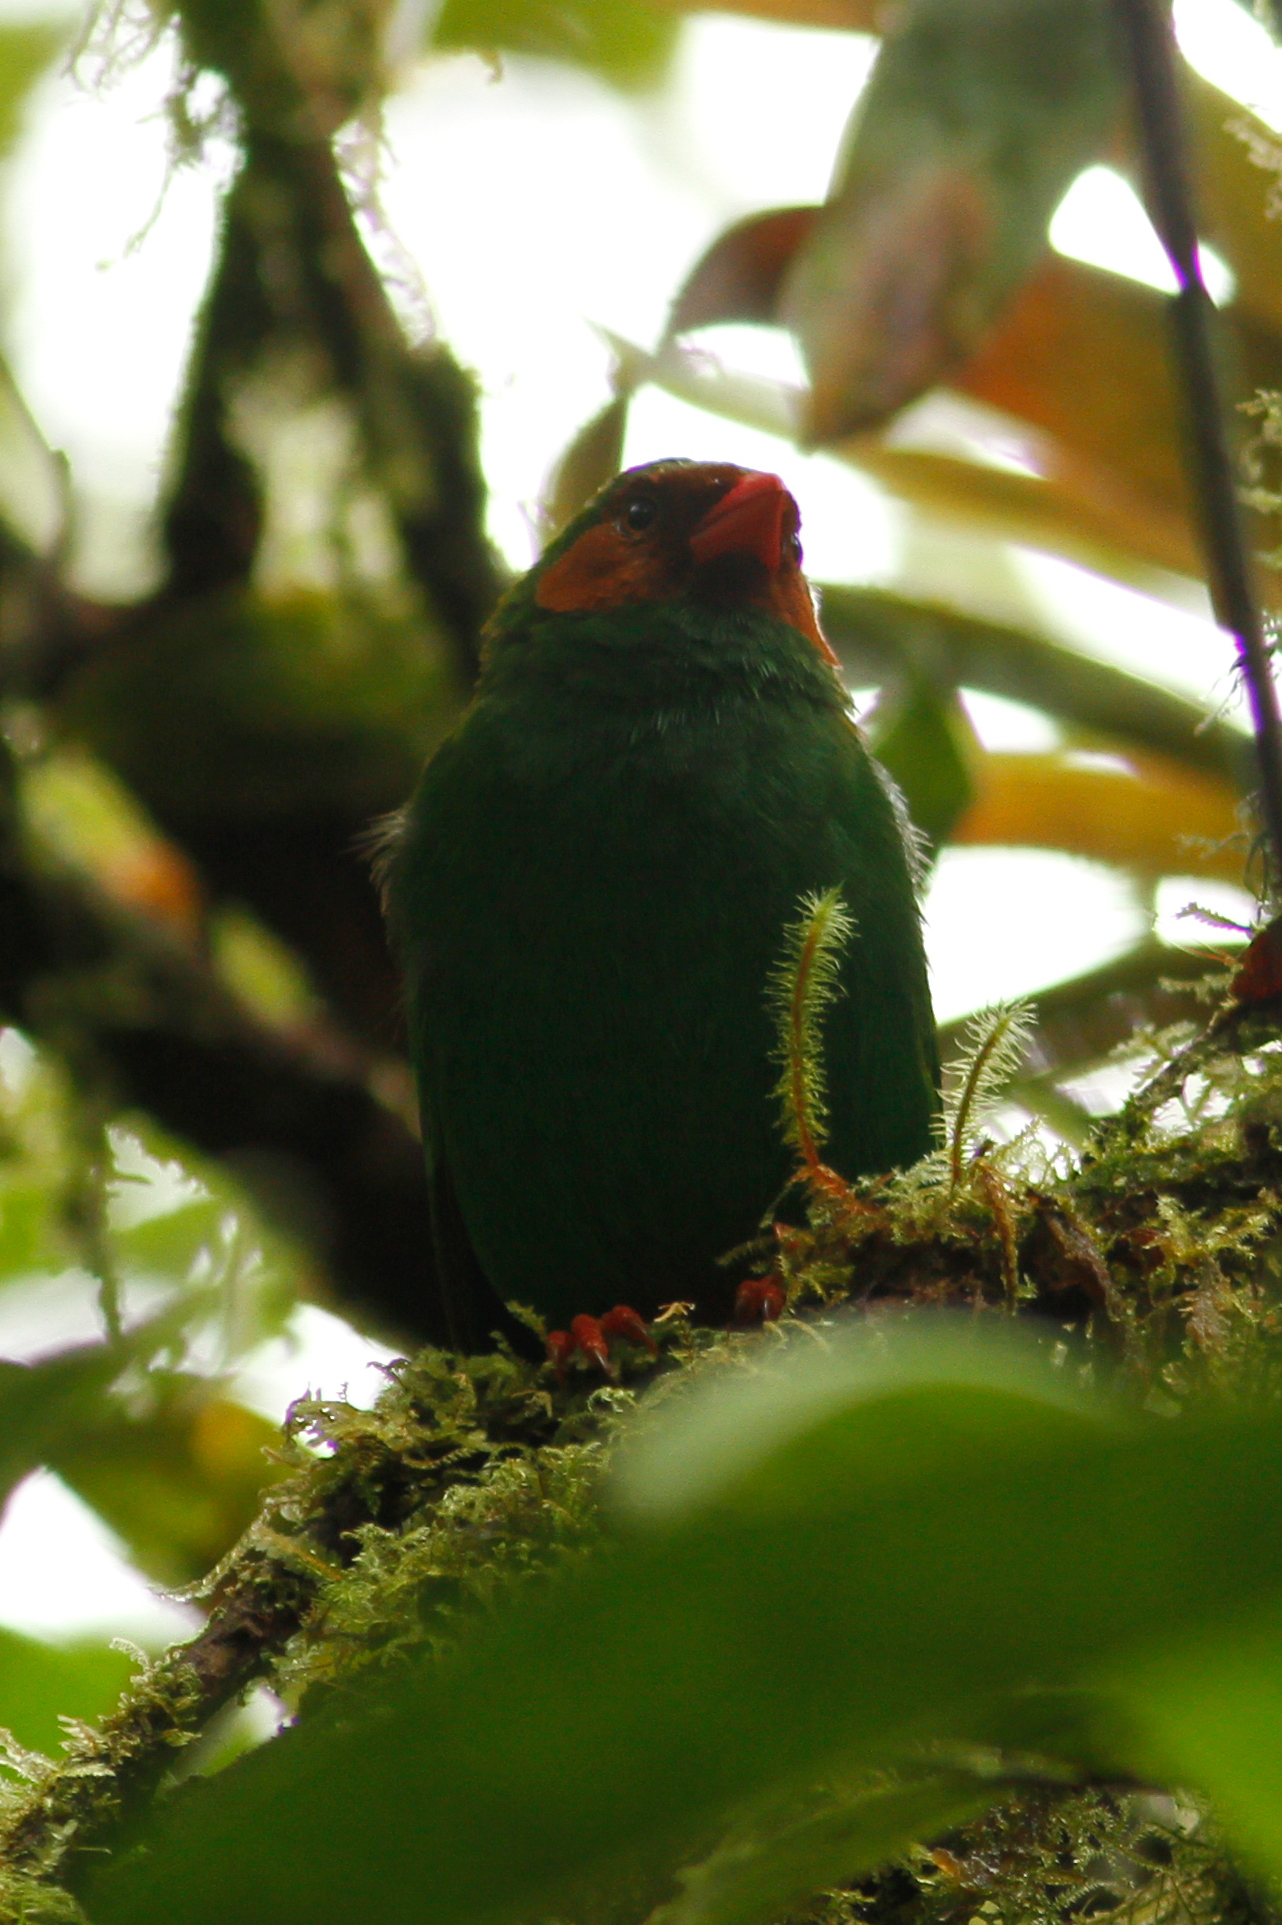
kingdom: Animalia
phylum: Chordata
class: Aves
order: Passeriformes
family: Thraupidae
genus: Chlorornis
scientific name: Chlorornis riefferii
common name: Grass-green tanager
